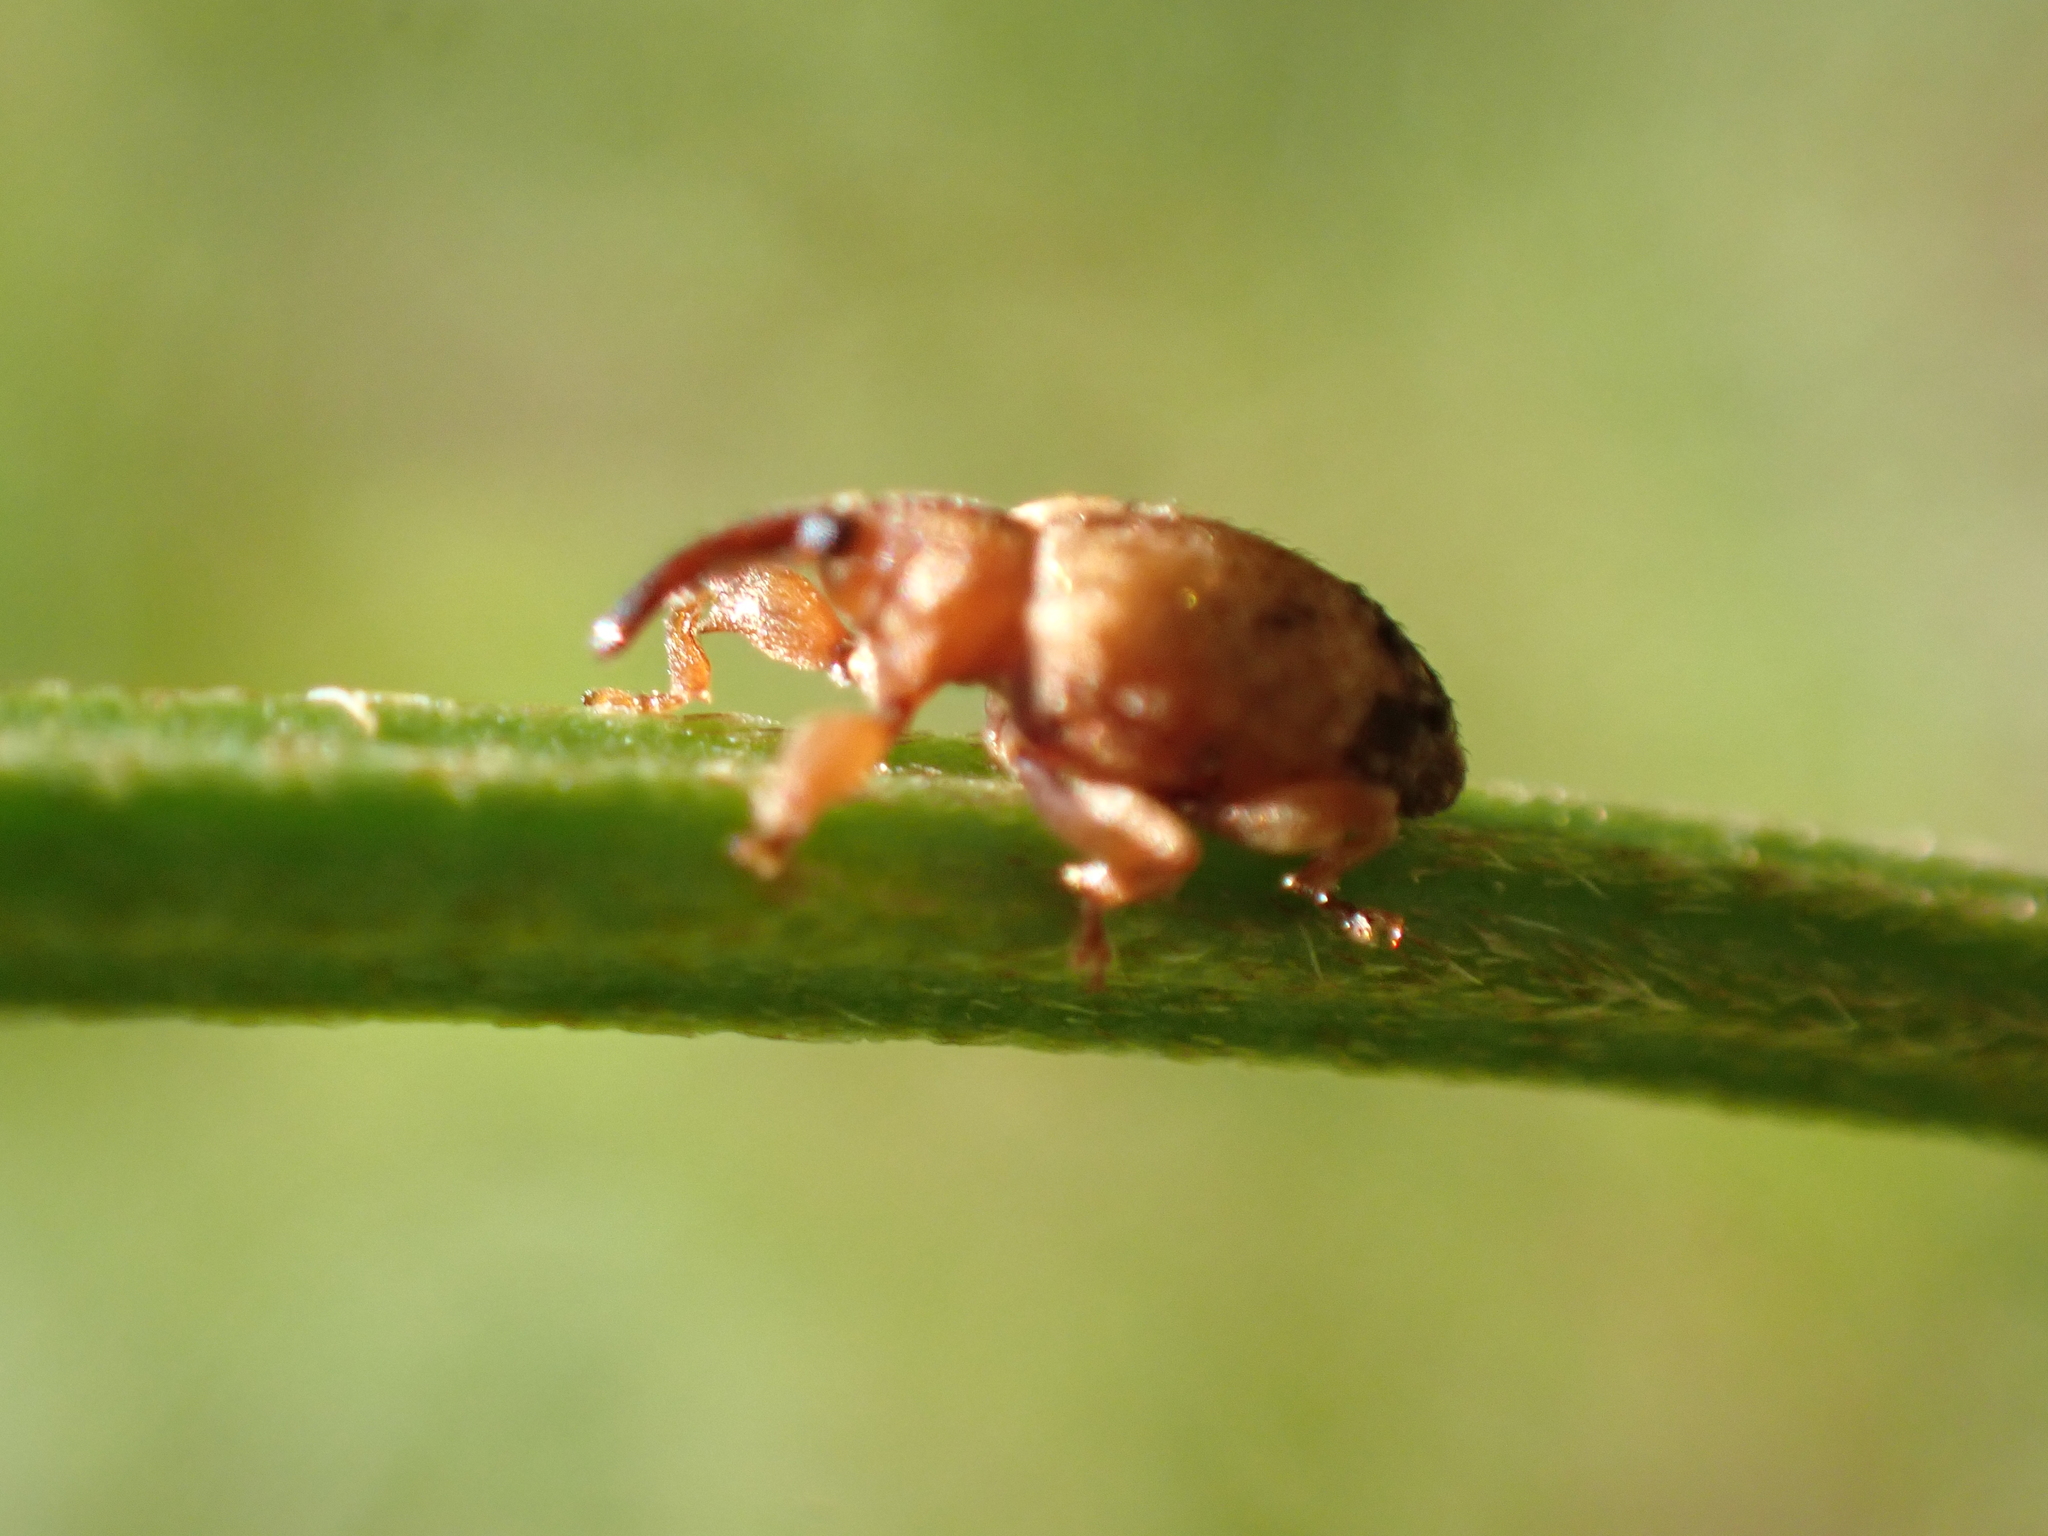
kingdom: Animalia
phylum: Arthropoda
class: Insecta
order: Coleoptera
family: Curculionidae
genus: Ochyromera
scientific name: Ochyromera ligustri
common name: Weevil
